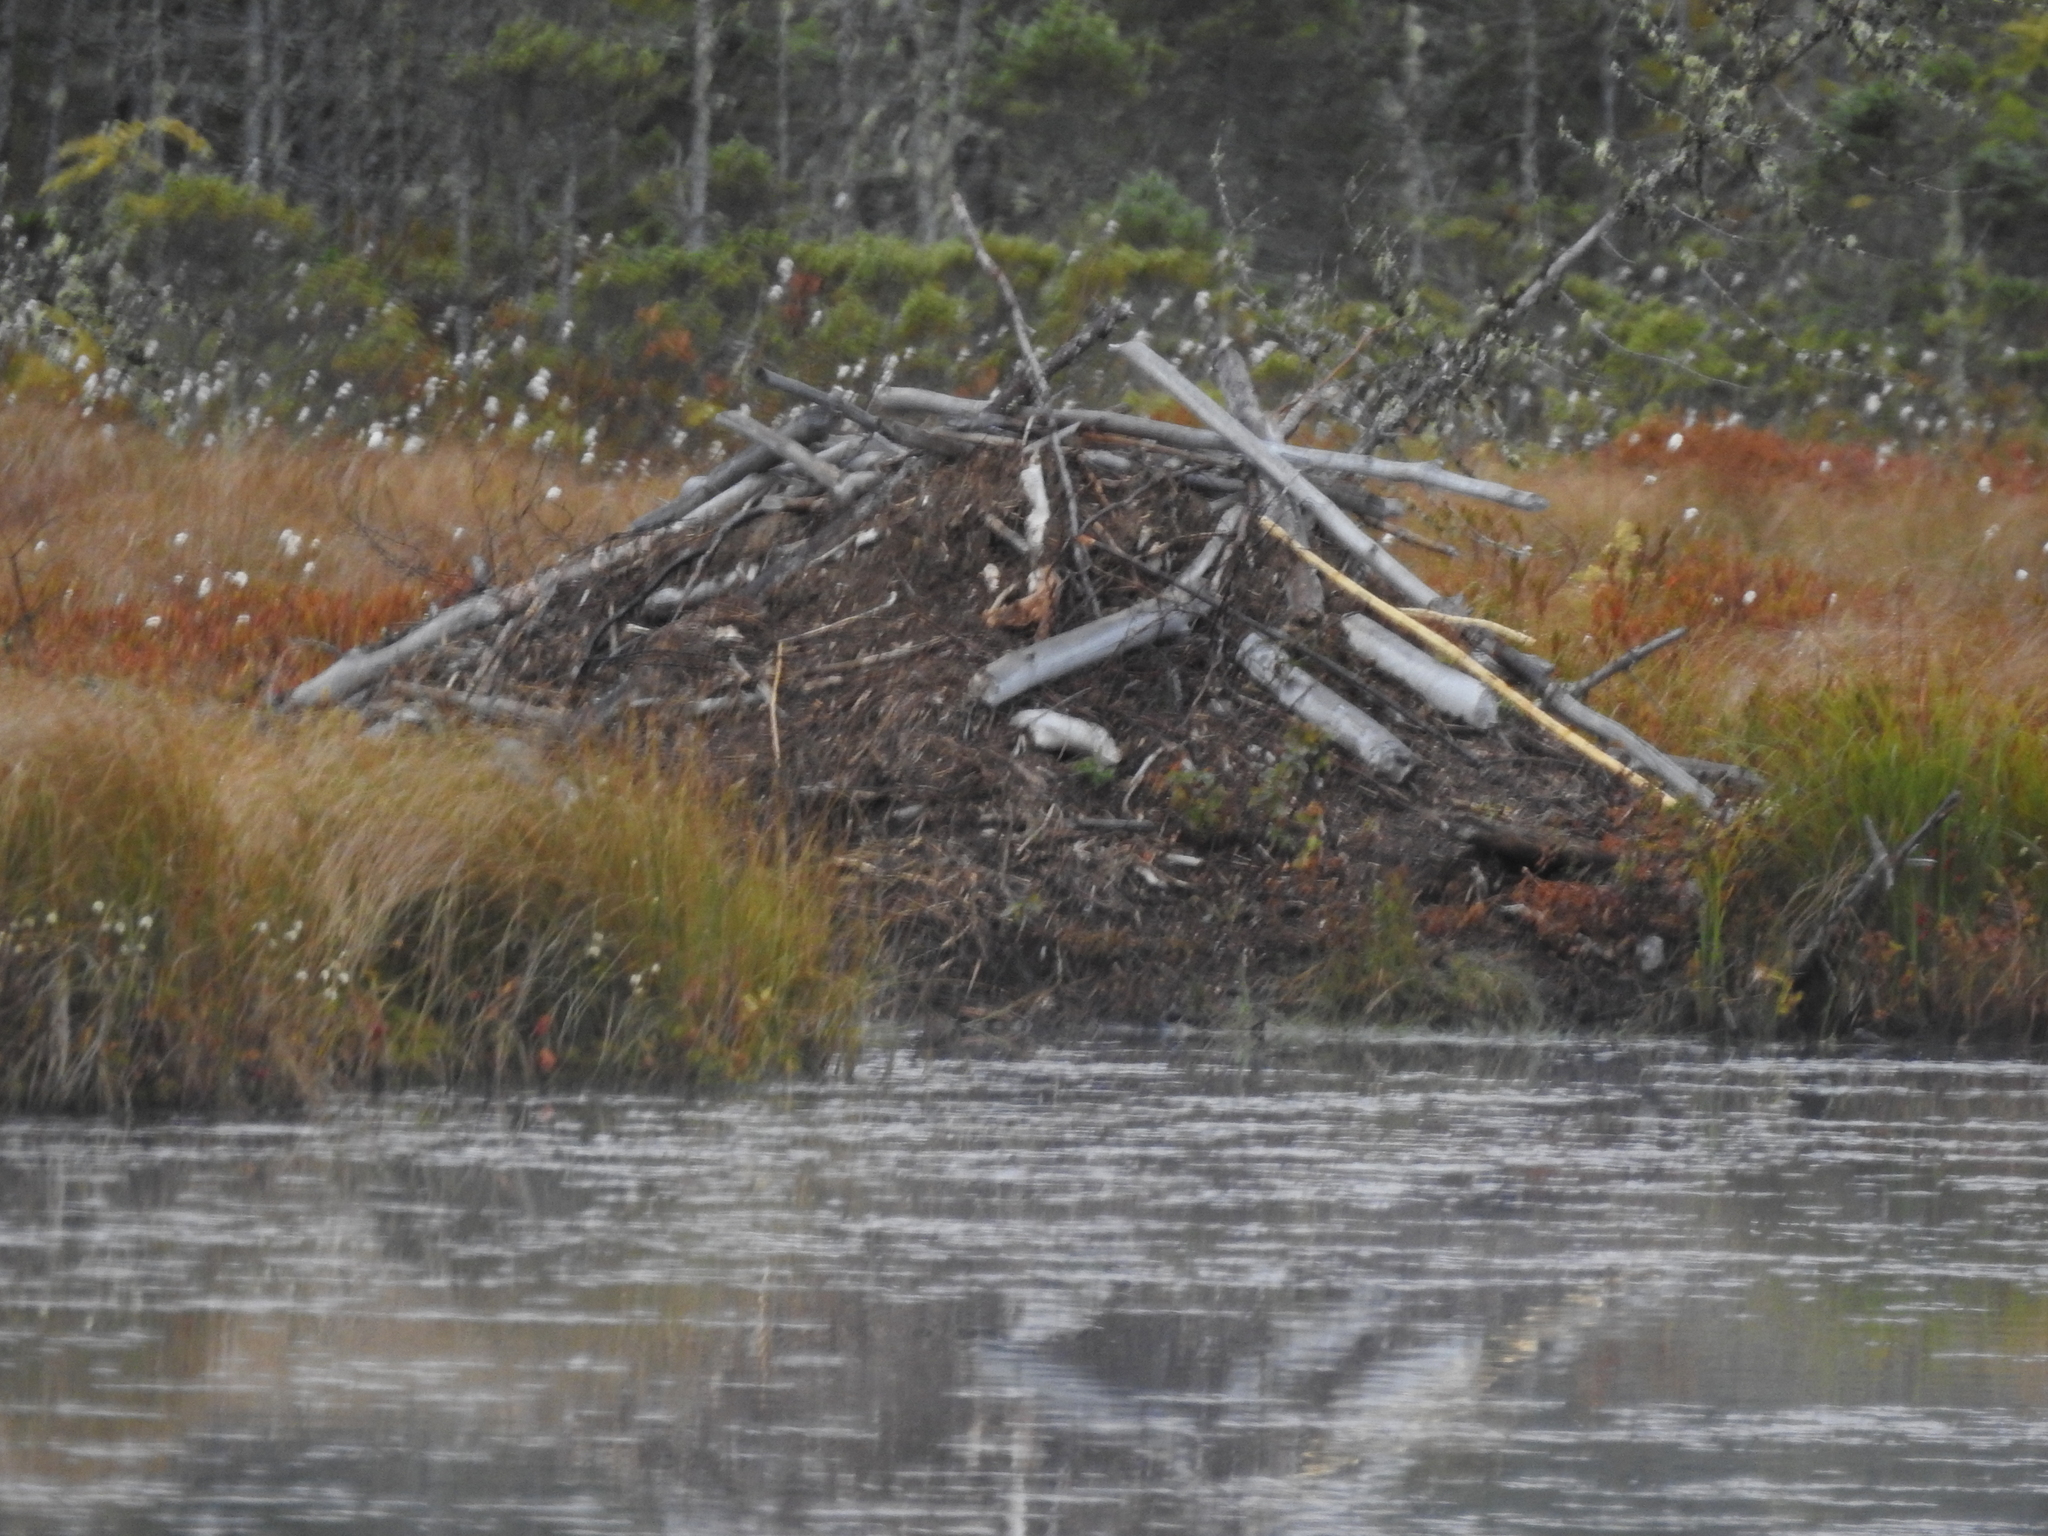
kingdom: Animalia
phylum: Chordata
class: Mammalia
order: Rodentia
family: Castoridae
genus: Castor
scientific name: Castor canadensis
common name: American beaver
